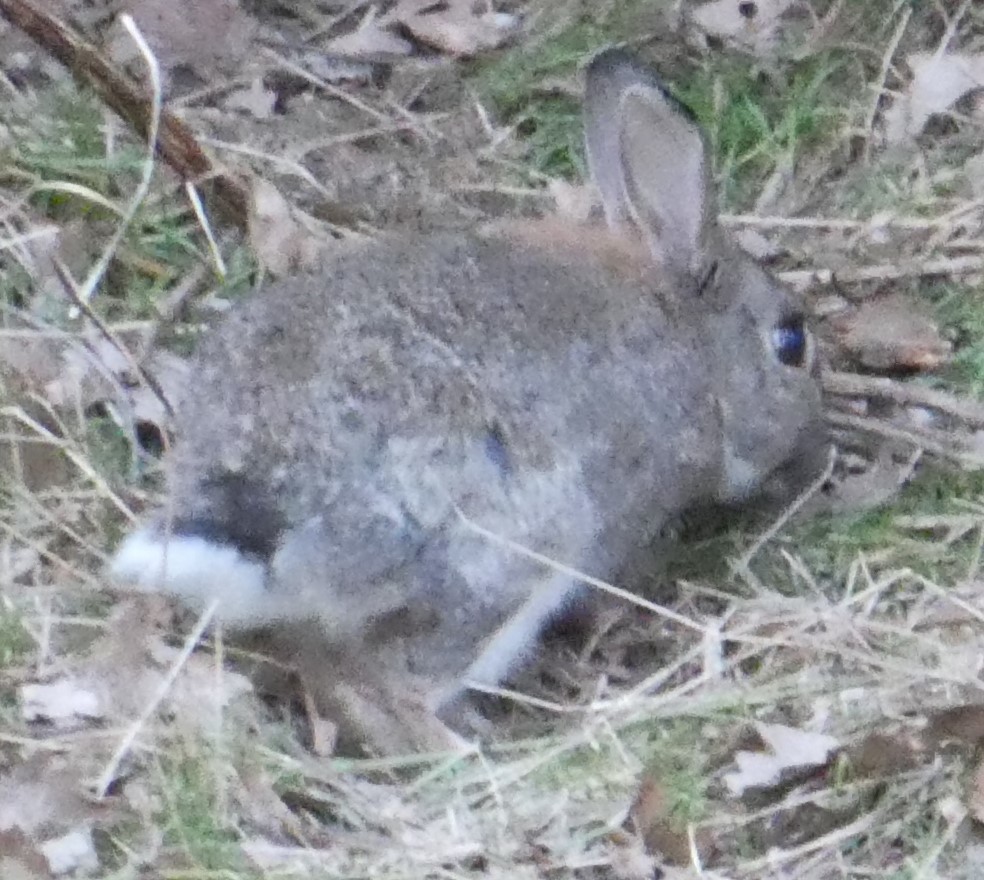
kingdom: Animalia
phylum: Chordata
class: Mammalia
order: Lagomorpha
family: Leporidae
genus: Oryctolagus
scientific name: Oryctolagus cuniculus
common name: European rabbit
